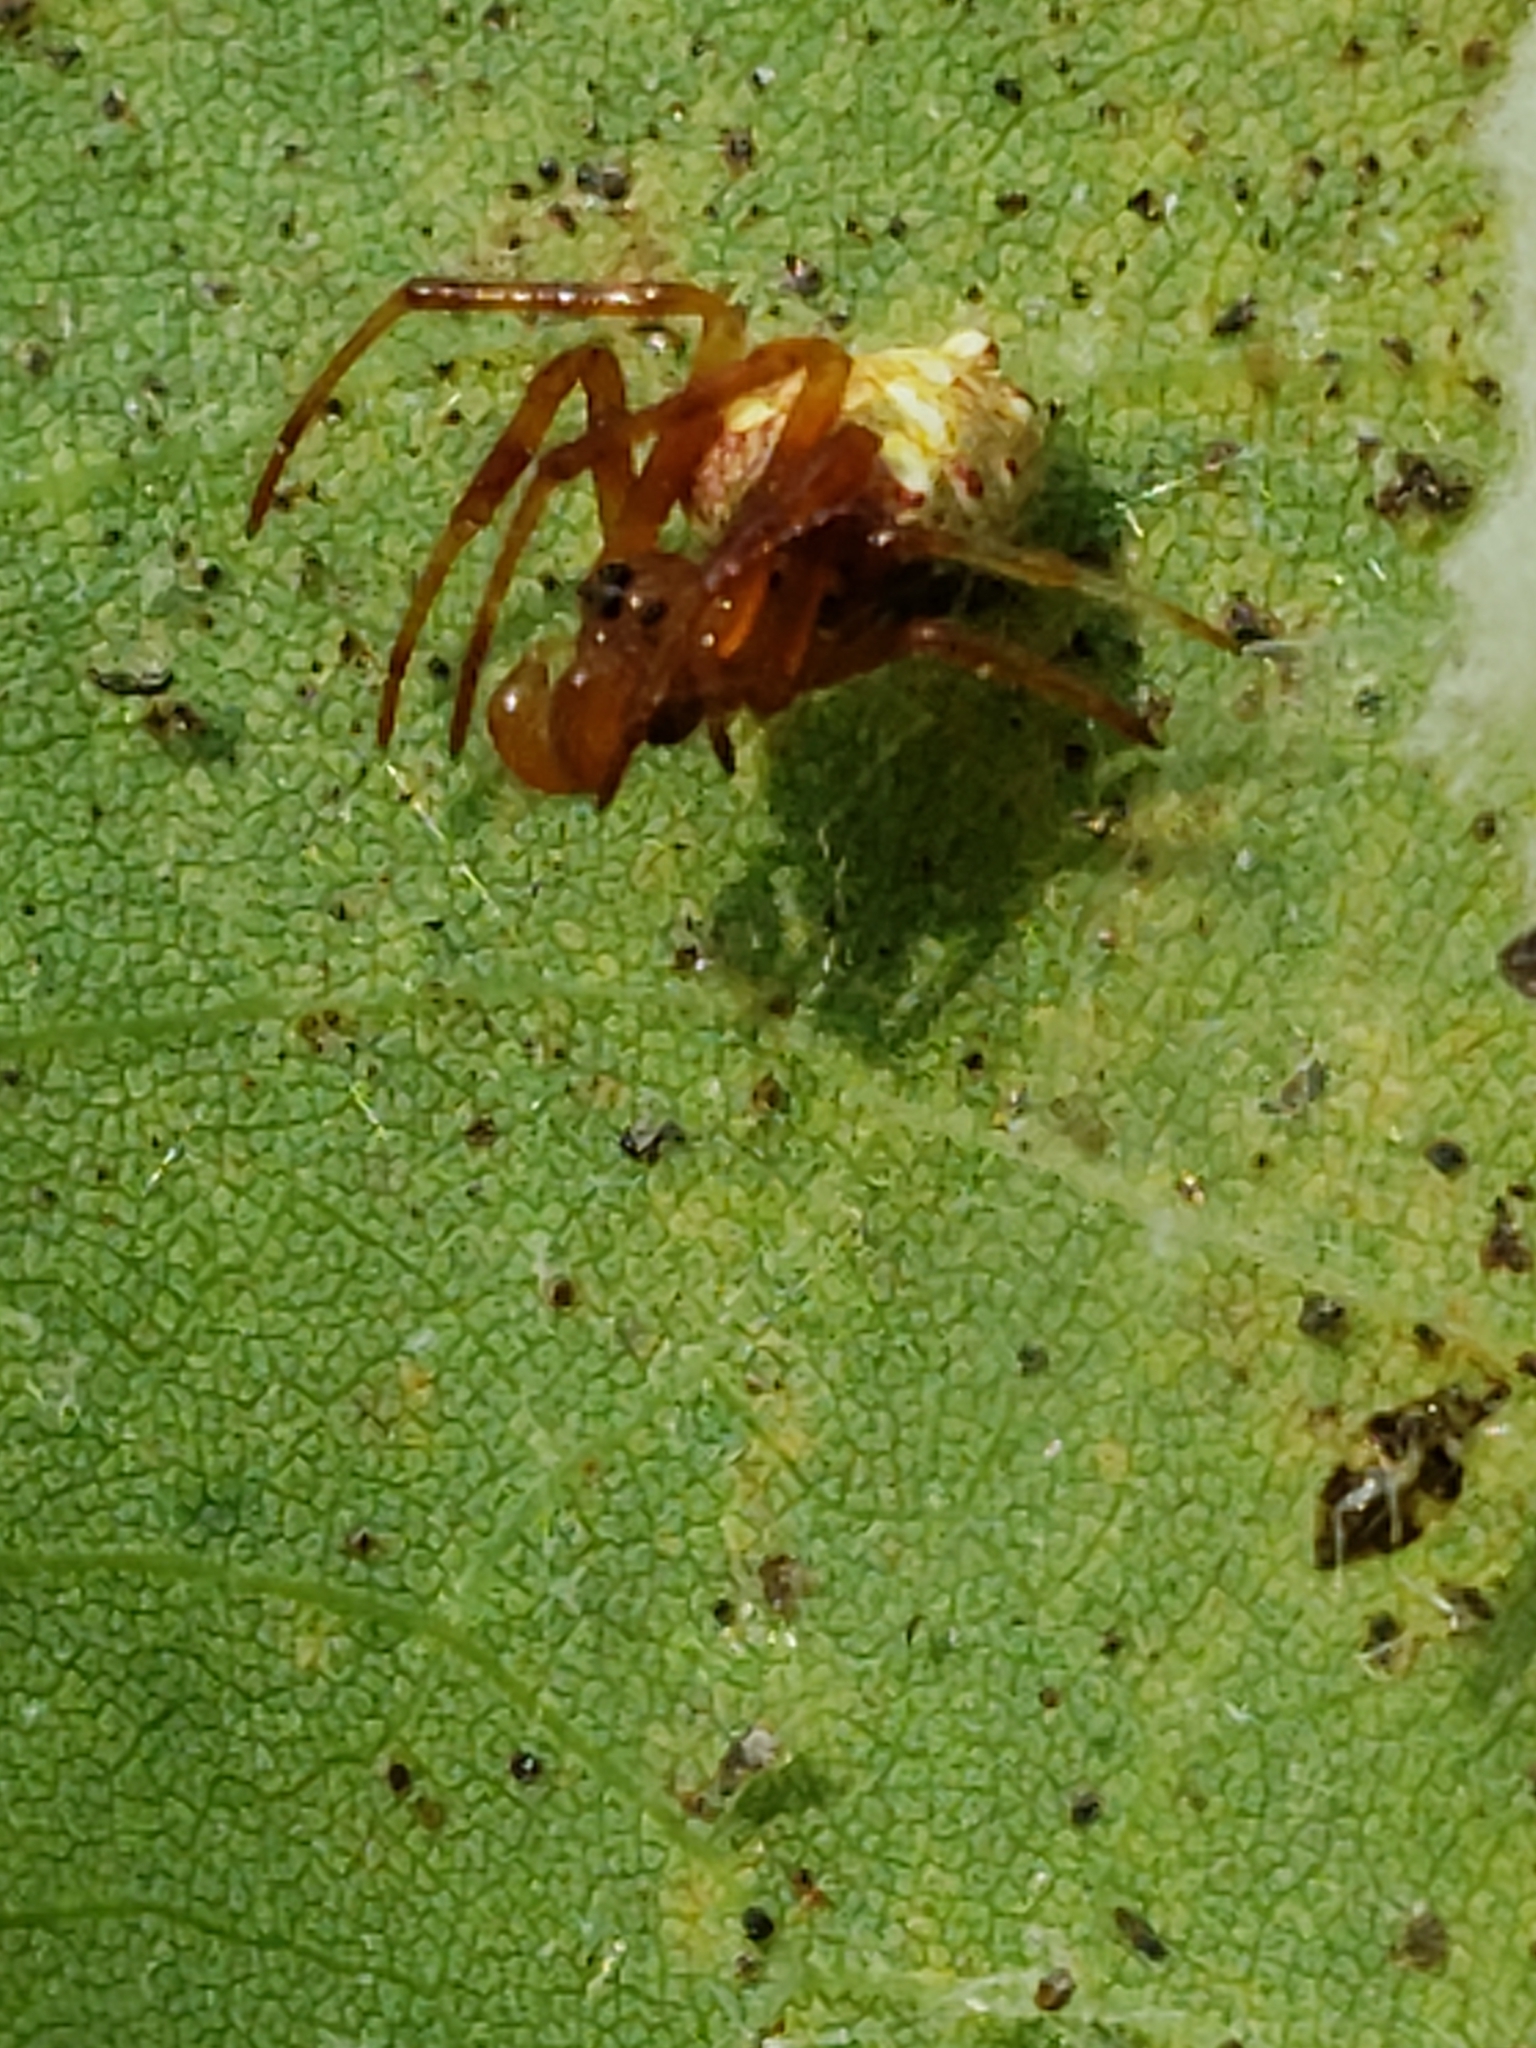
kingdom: Animalia
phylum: Arthropoda
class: Arachnida
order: Araneae
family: Araneidae
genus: Verrucosa
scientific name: Verrucosa arenata
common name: Orb weavers
